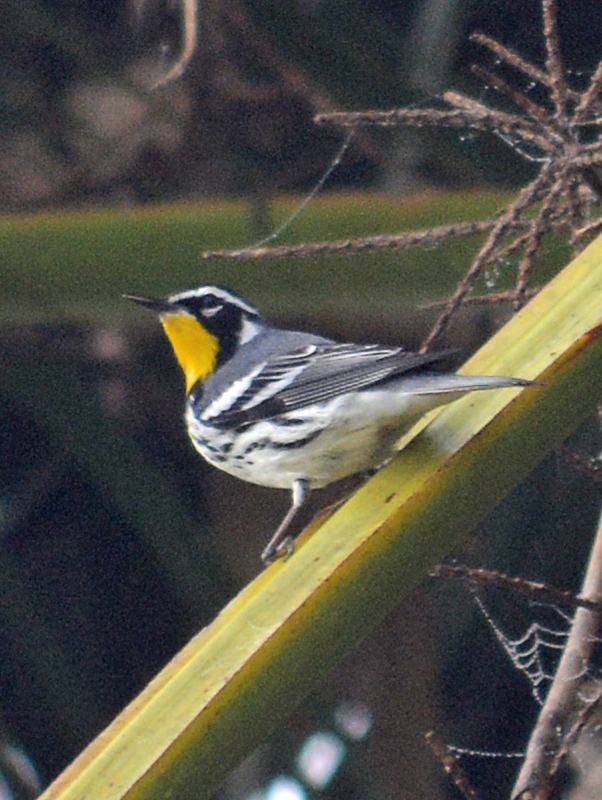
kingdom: Animalia
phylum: Chordata
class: Aves
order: Passeriformes
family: Parulidae
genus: Setophaga
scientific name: Setophaga dominica
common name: Yellow-throated warbler
